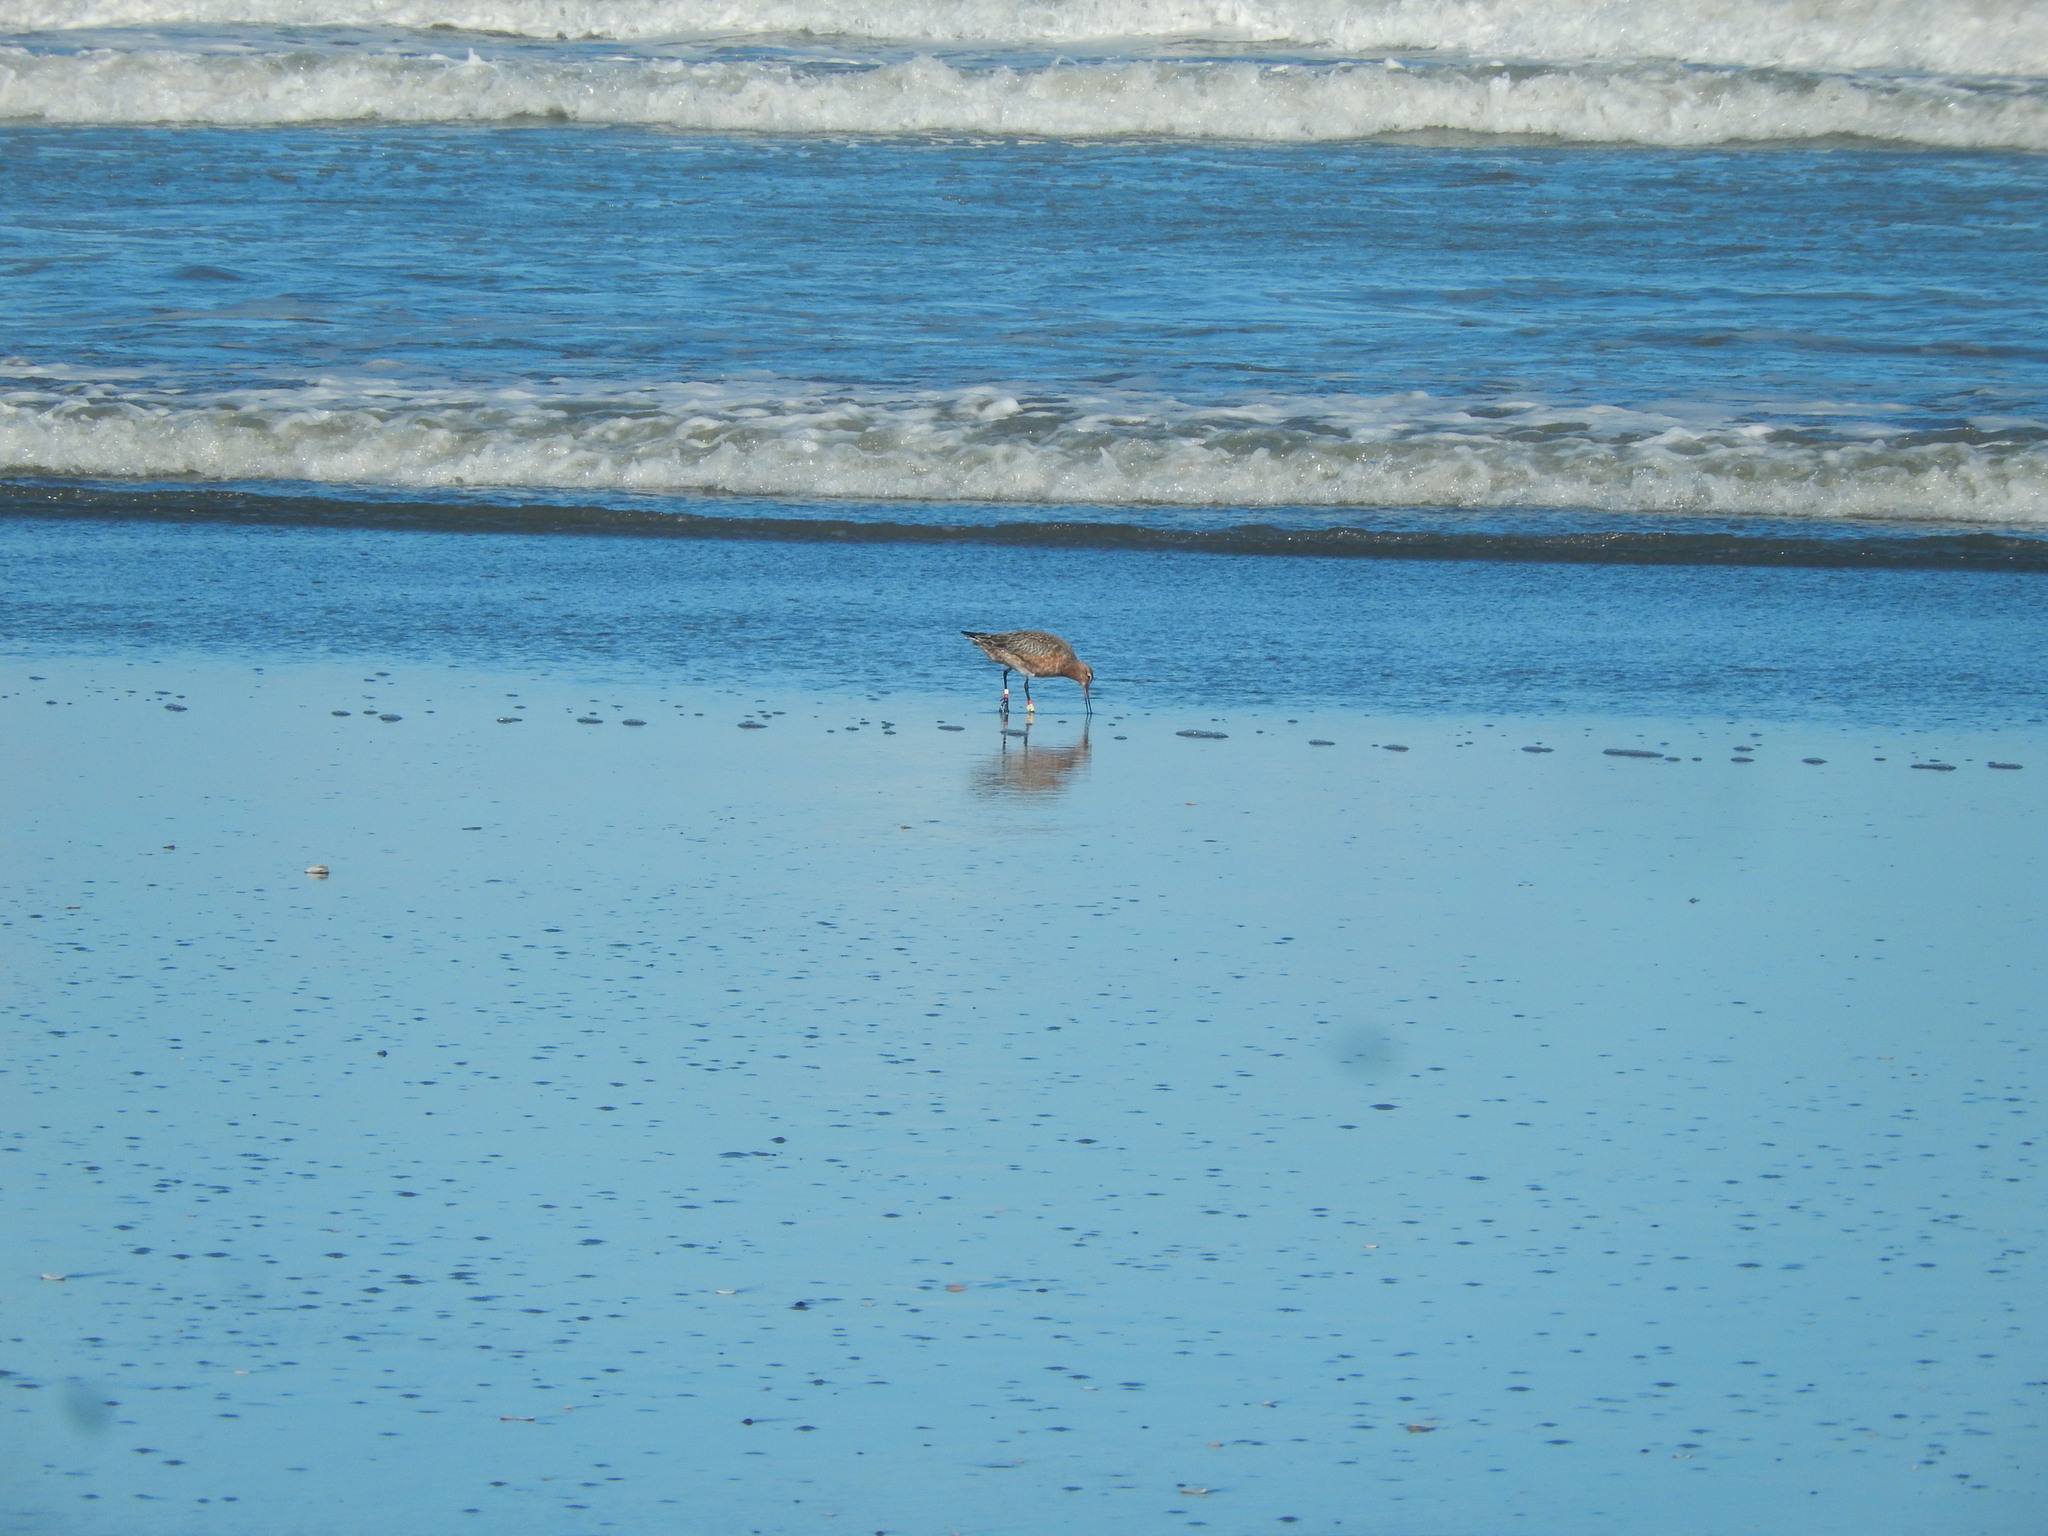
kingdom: Animalia
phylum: Chordata
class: Aves
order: Charadriiformes
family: Scolopacidae
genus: Limosa
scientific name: Limosa lapponica
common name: Bar-tailed godwit
